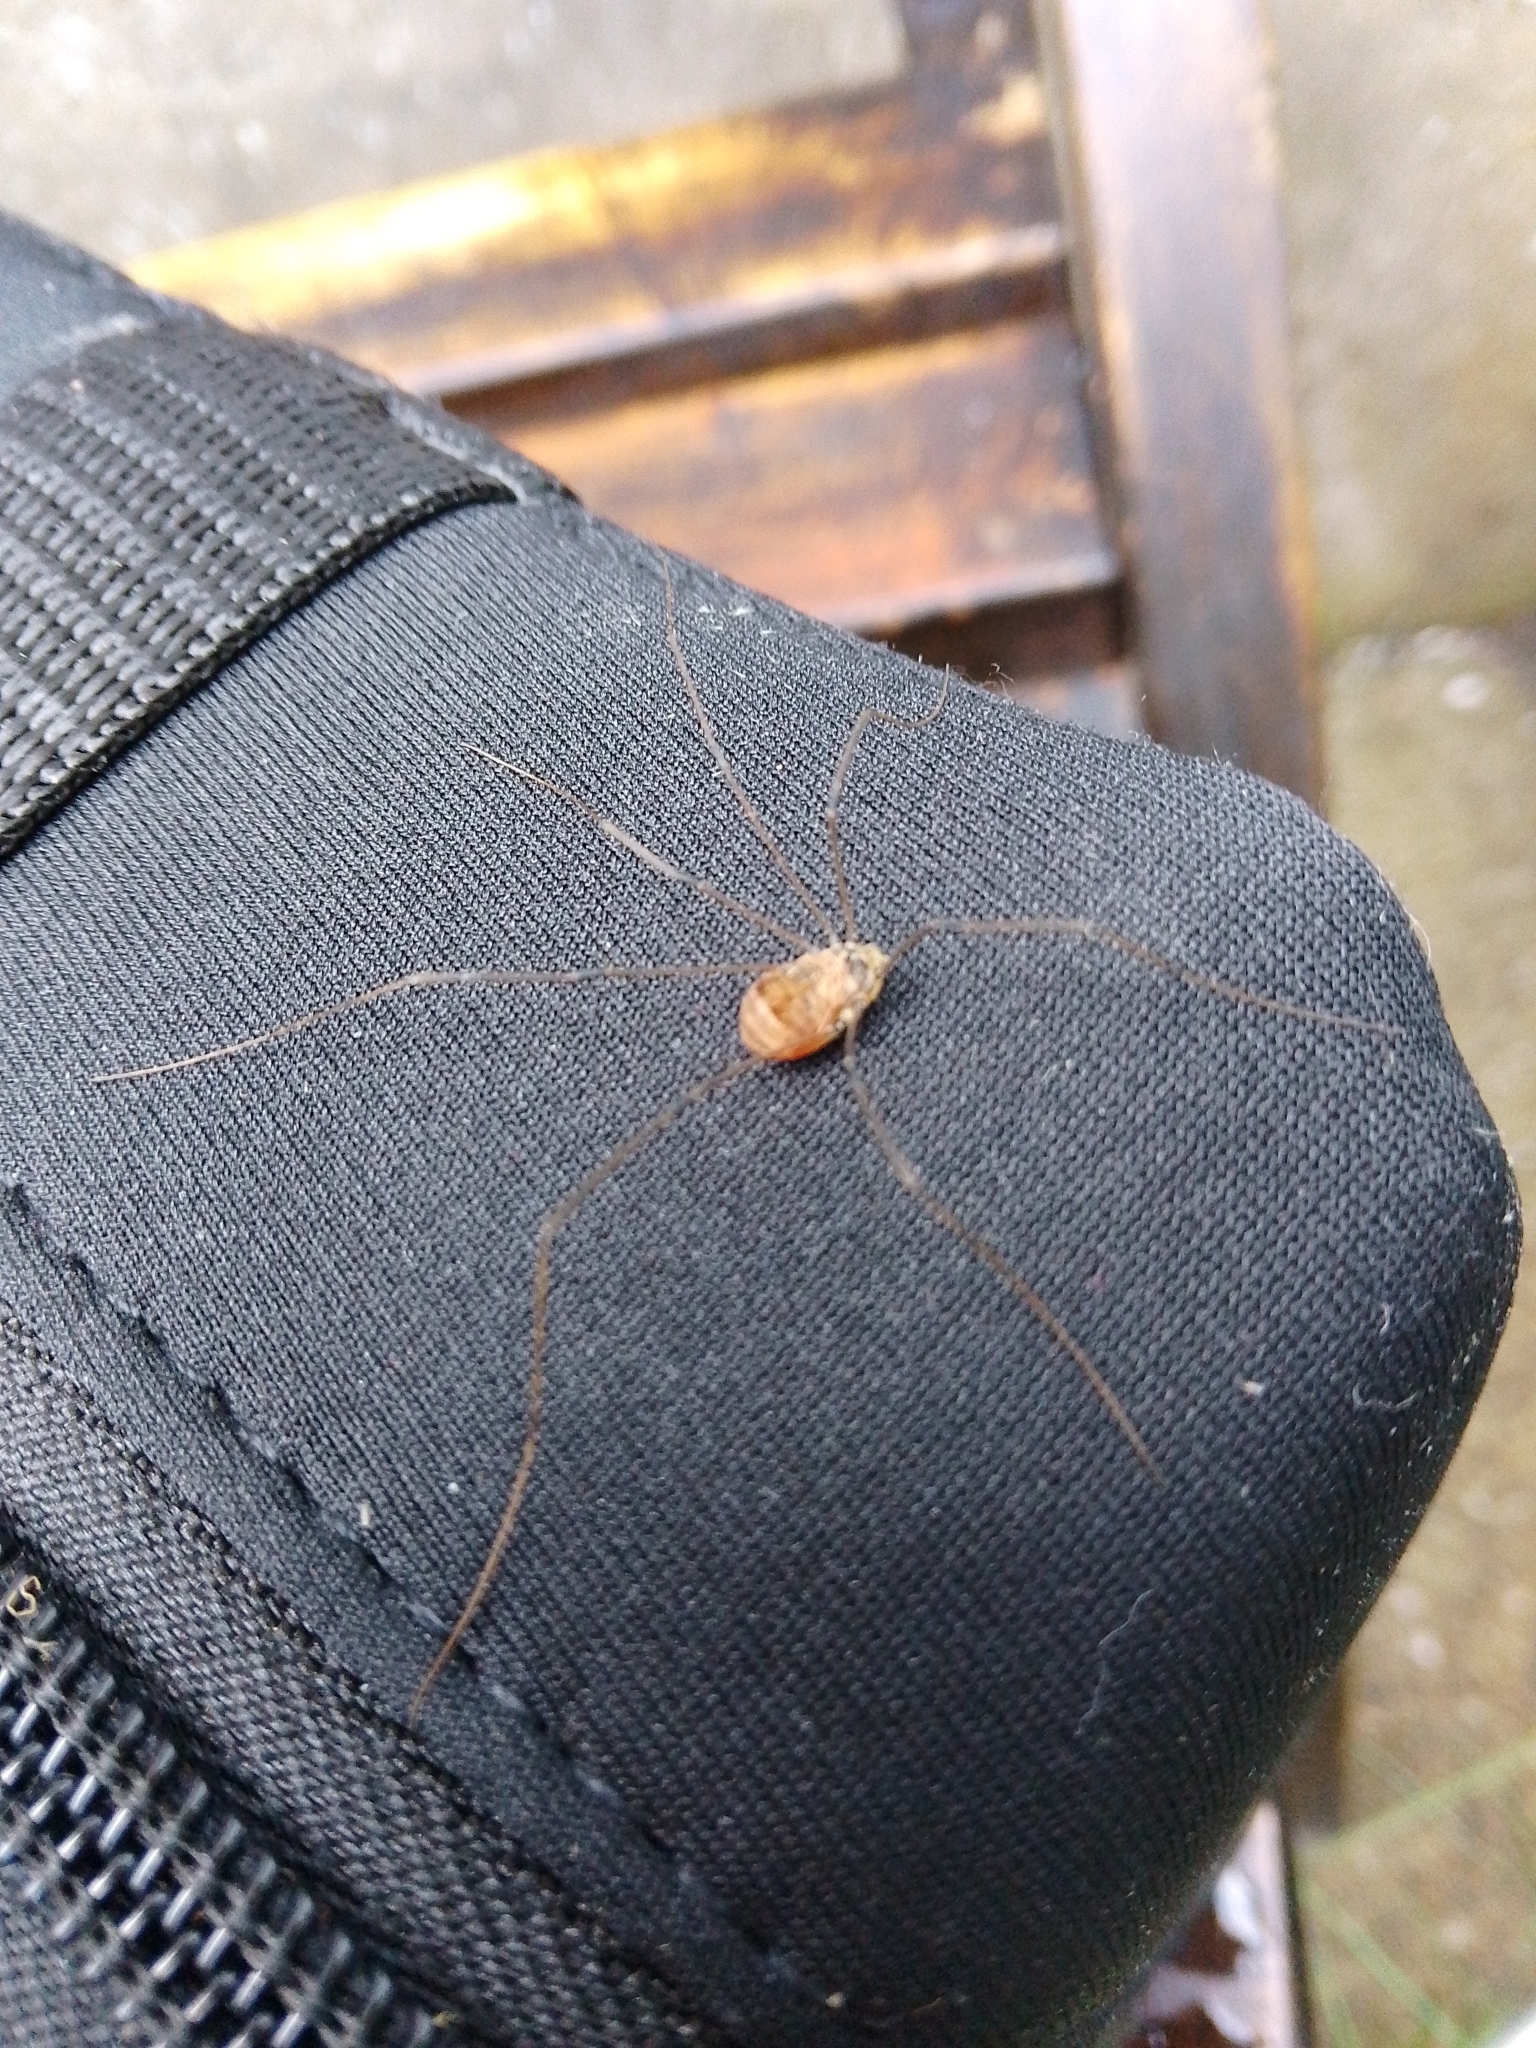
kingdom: Animalia
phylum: Arthropoda
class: Arachnida
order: Opiliones
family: Sclerosomatidae
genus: Leiobunum
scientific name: Leiobunum blackwalli
